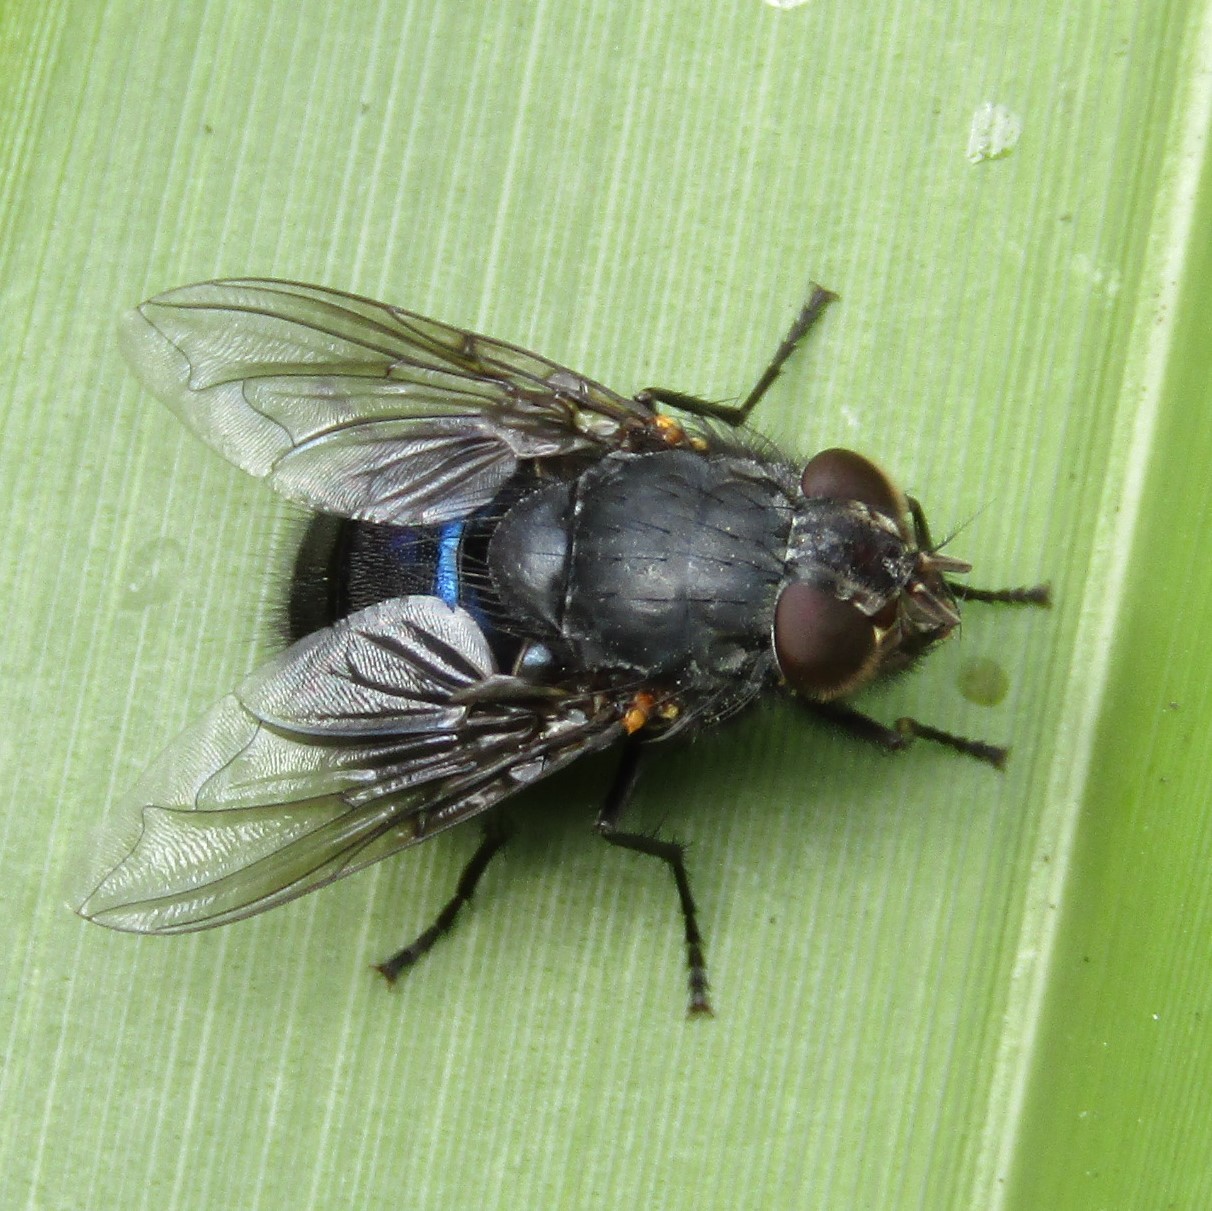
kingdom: Animalia
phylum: Arthropoda
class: Insecta
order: Diptera
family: Calliphoridae
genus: Calliphora
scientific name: Calliphora quadrimaculata
